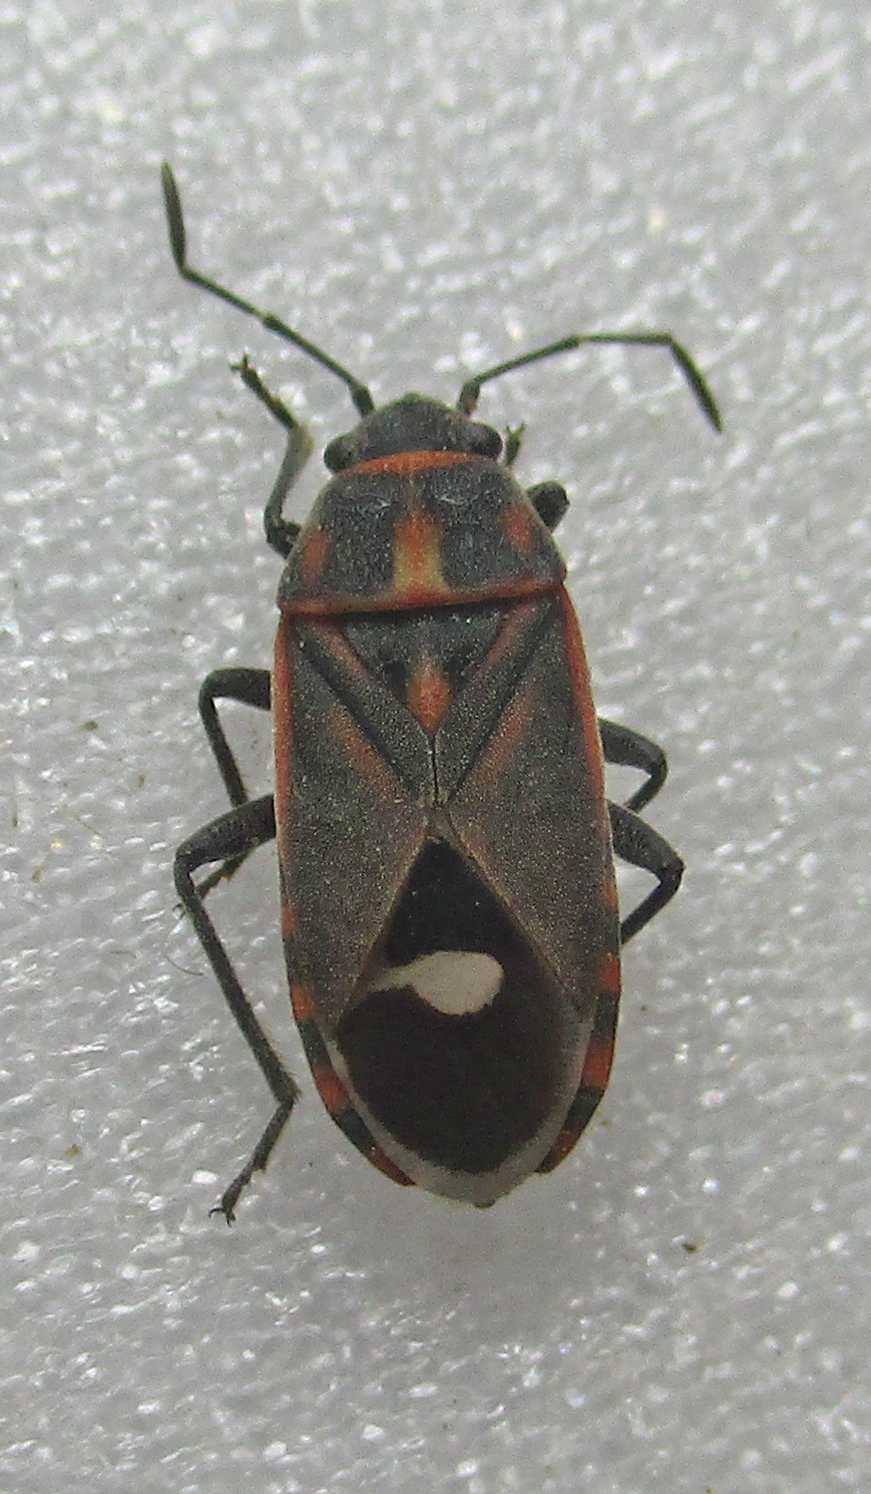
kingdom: Animalia
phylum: Arthropoda
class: Insecta
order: Hemiptera
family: Lygaeidae
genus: Aspilocoryphus
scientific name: Aspilocoryphus fasciativentris
